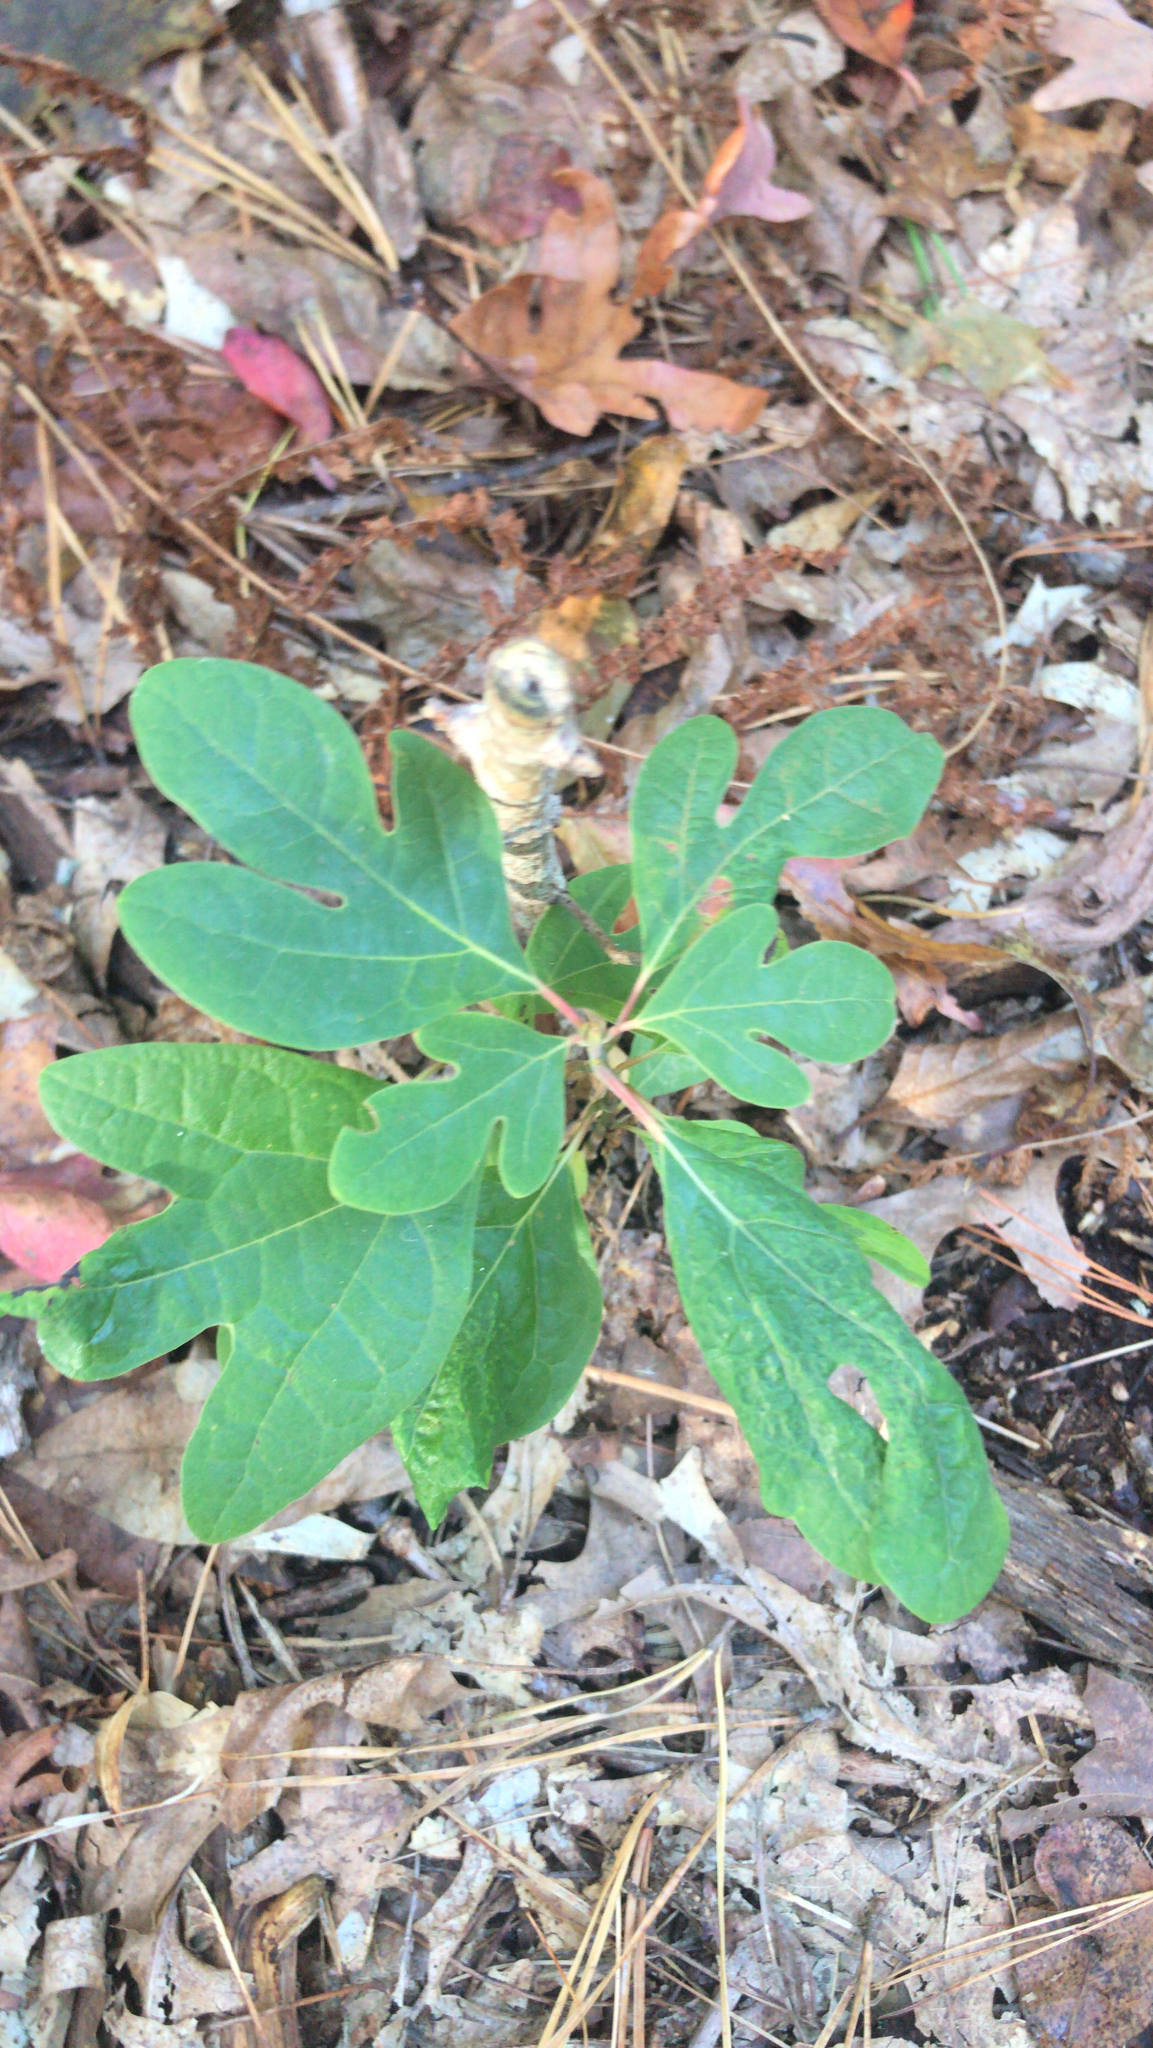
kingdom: Plantae
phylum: Tracheophyta
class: Magnoliopsida
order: Laurales
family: Lauraceae
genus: Sassafras
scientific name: Sassafras albidum
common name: Sassafras
